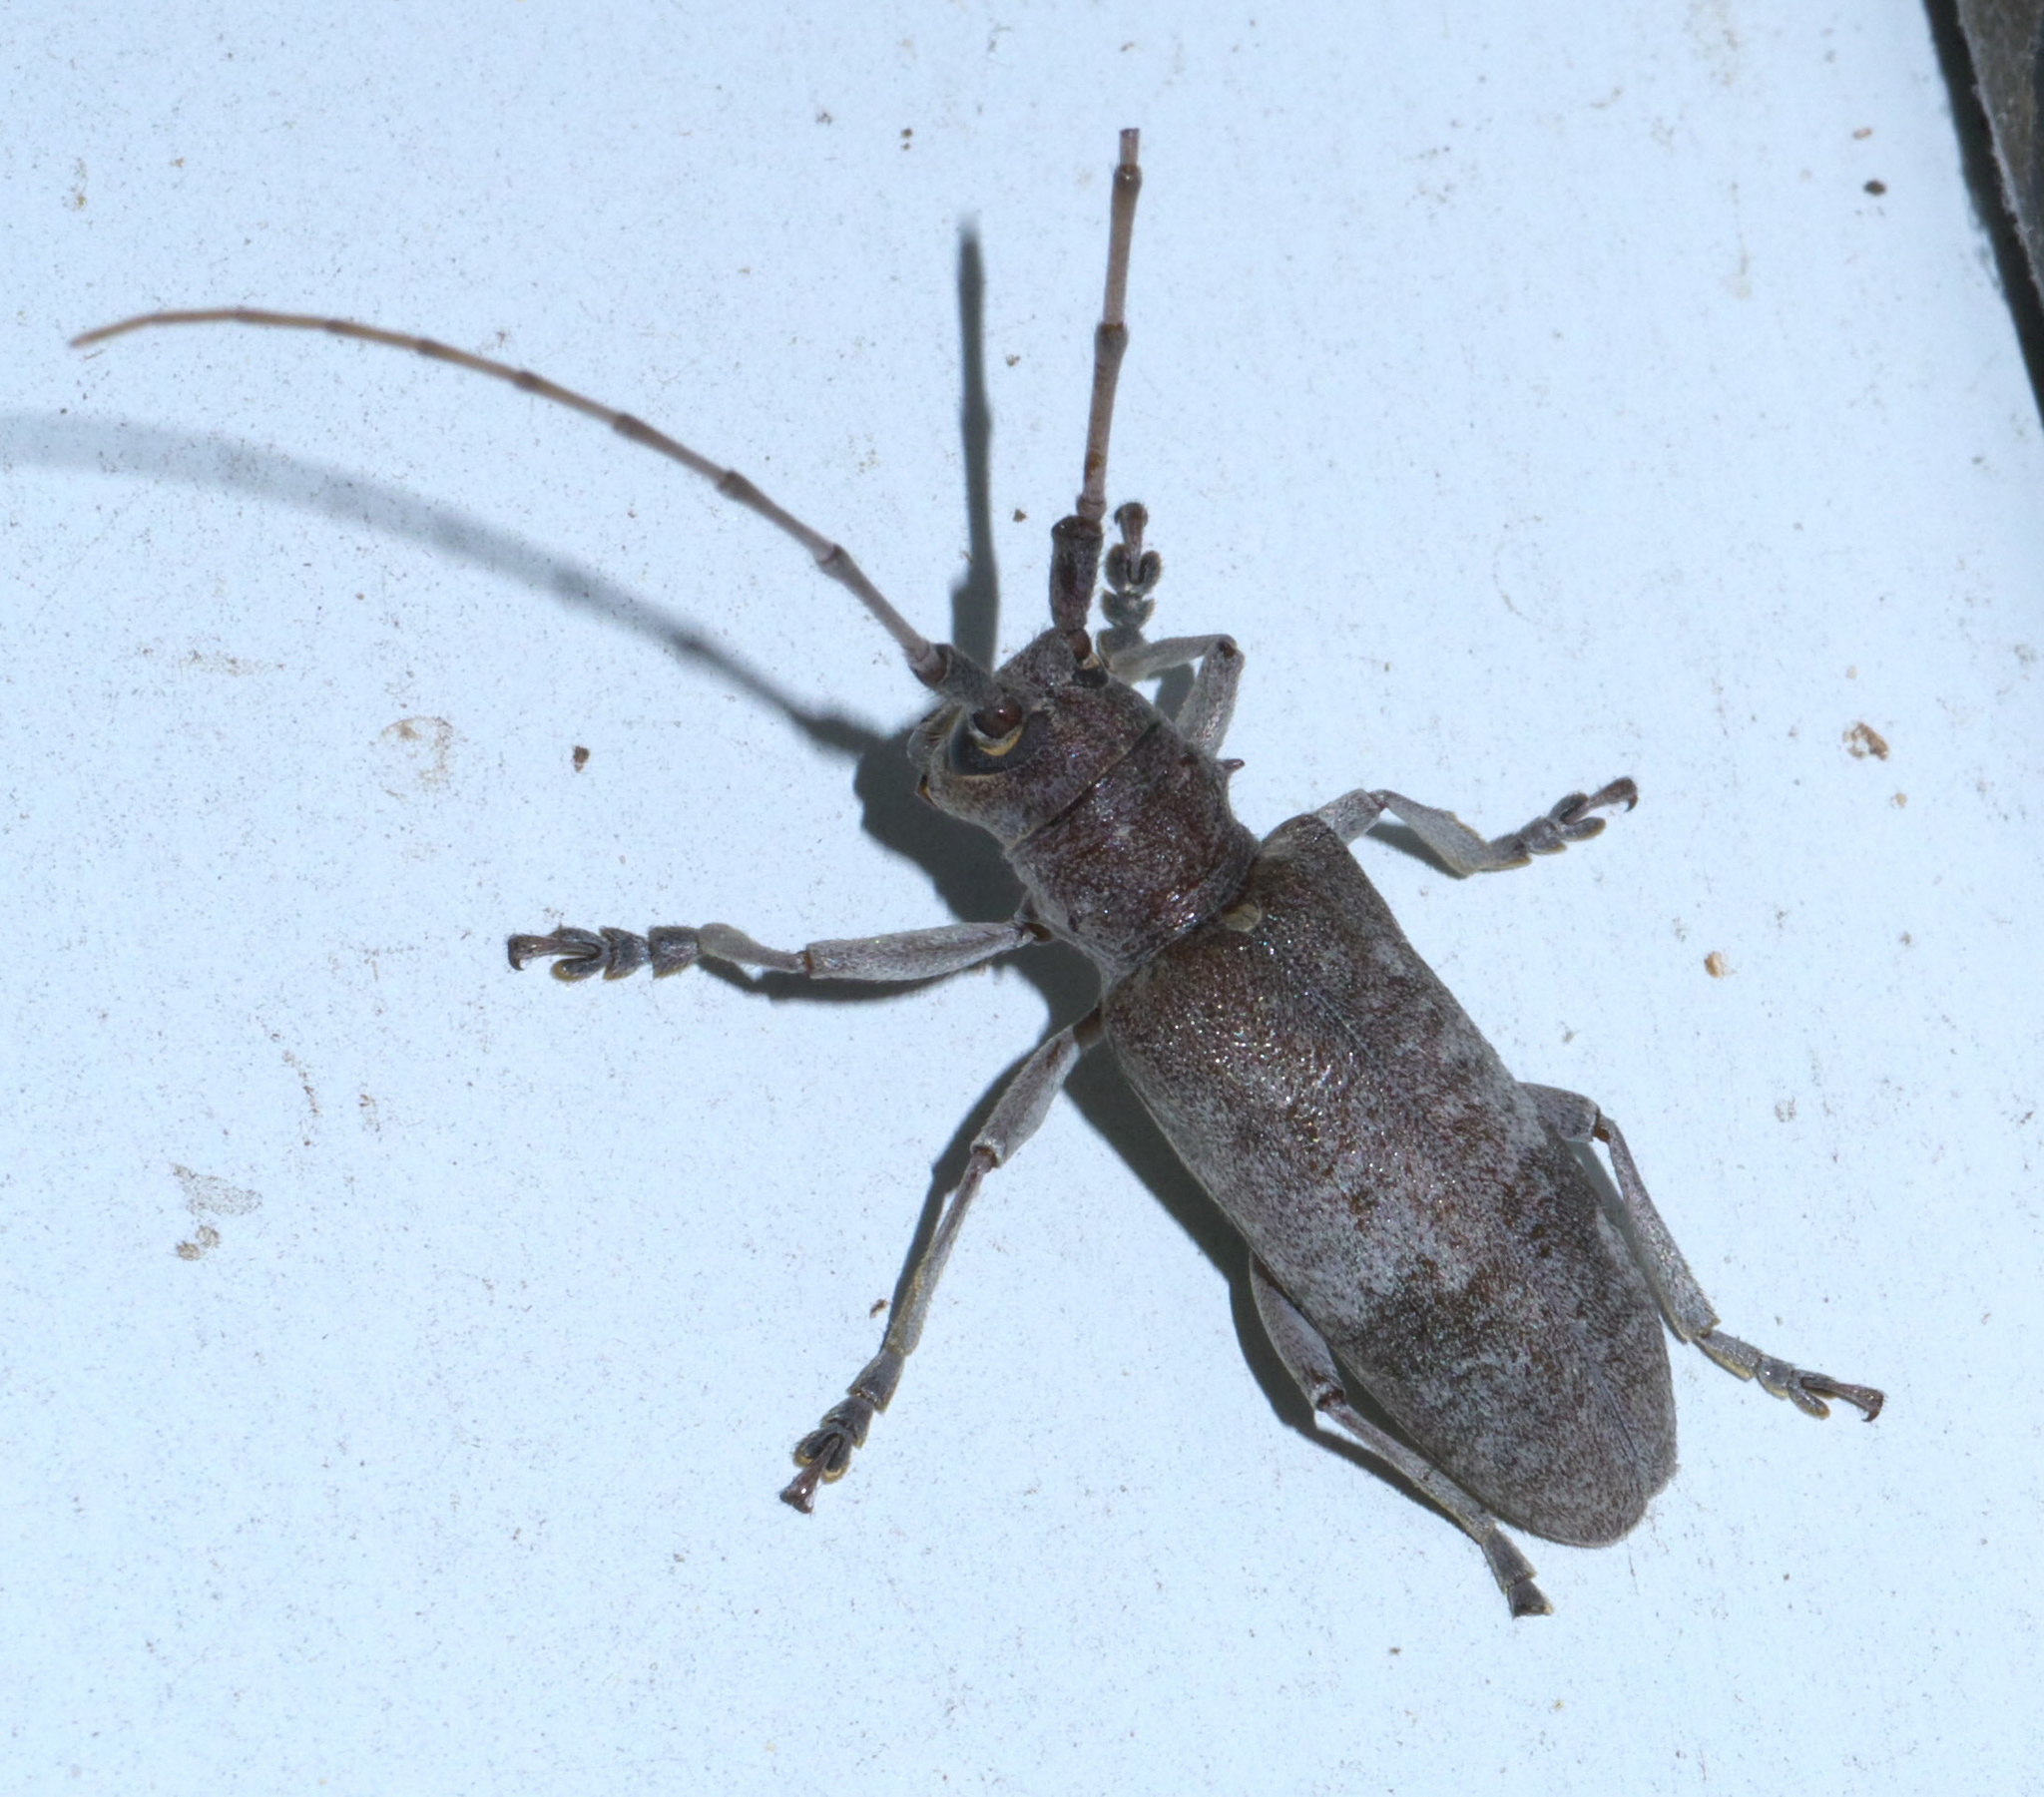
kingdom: Animalia
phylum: Arthropoda
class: Insecta
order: Coleoptera
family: Cerambycidae
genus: Goes
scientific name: Goes pulverulentus
